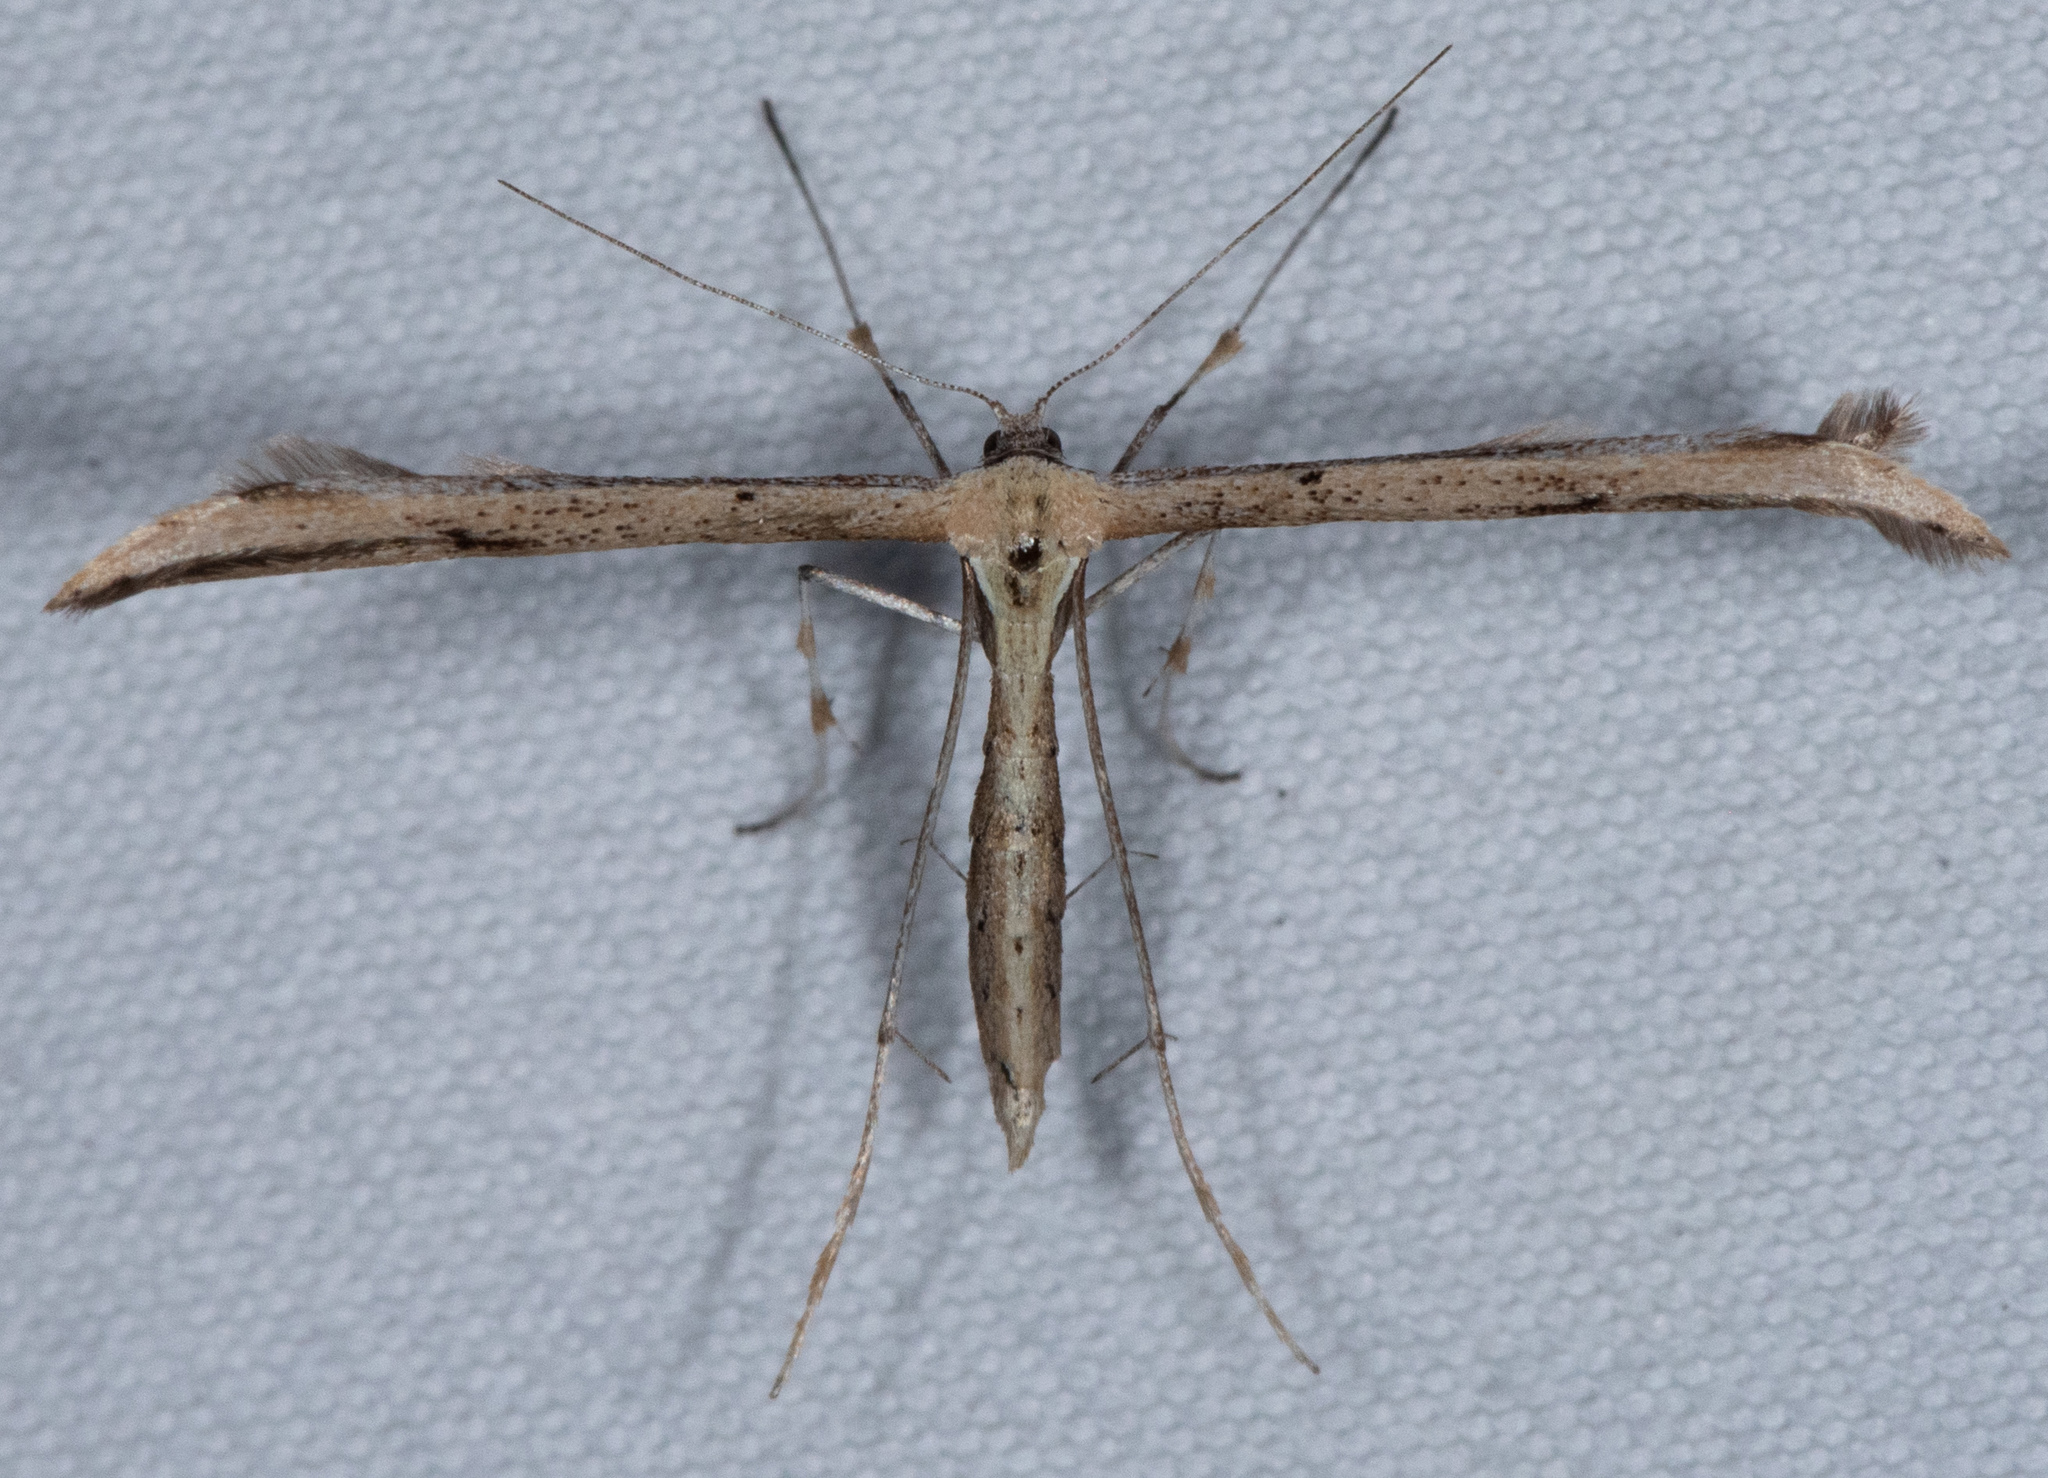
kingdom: Animalia
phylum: Arthropoda
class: Insecta
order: Lepidoptera
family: Pterophoridae
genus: Emmelina
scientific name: Emmelina monodactyla
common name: Common plume
